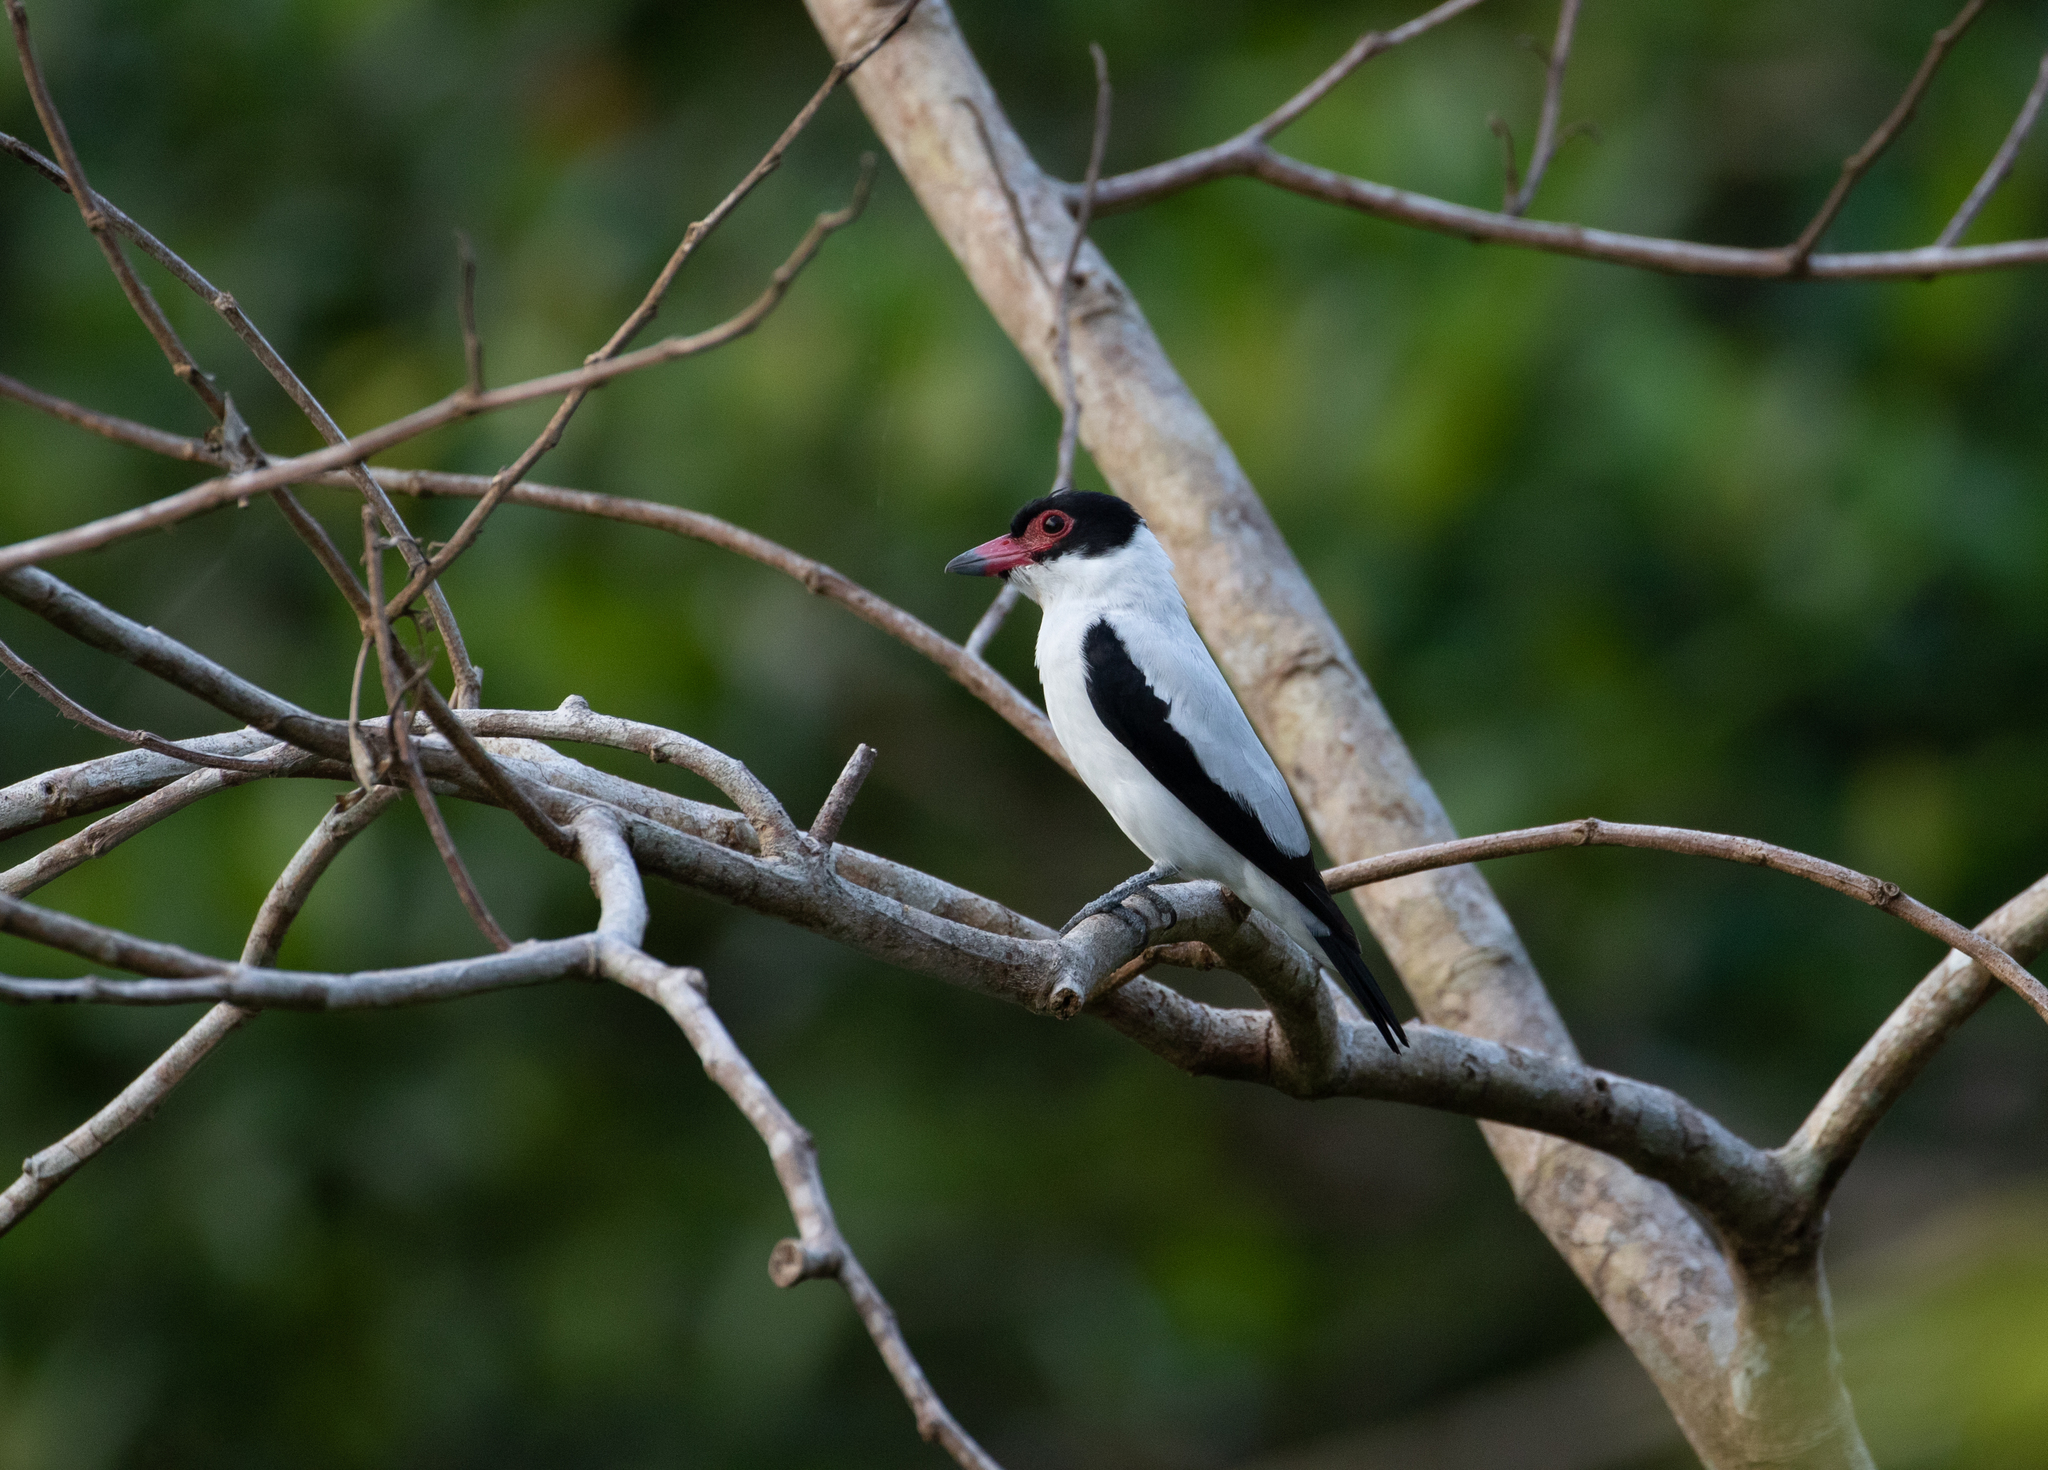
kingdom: Animalia
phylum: Chordata
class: Aves
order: Passeriformes
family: Cotingidae
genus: Tityra
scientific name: Tityra cayana
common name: Black-tailed tityra
